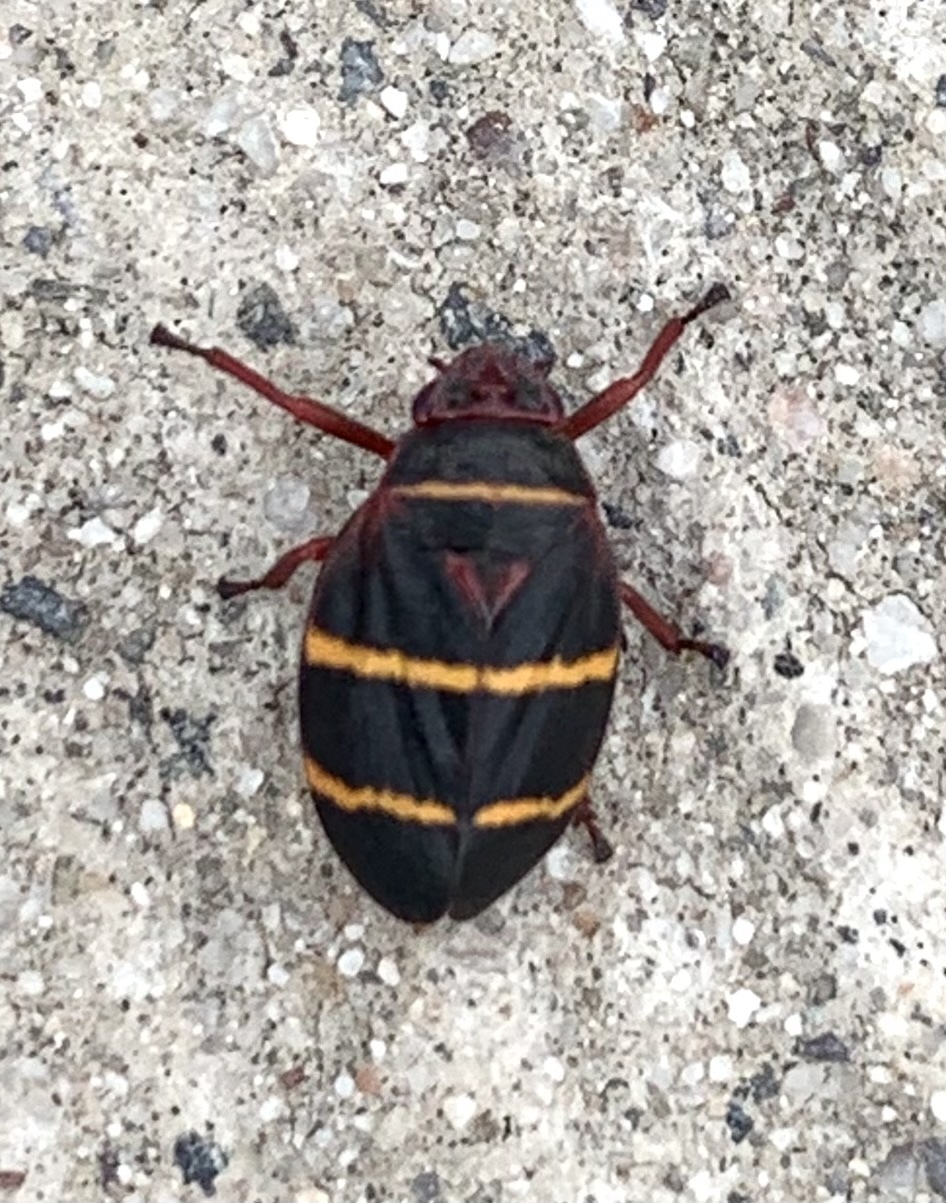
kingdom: Animalia
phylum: Arthropoda
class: Insecta
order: Hemiptera
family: Cercopidae
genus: Prosapia
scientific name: Prosapia bicincta
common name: Twolined spittlebug
